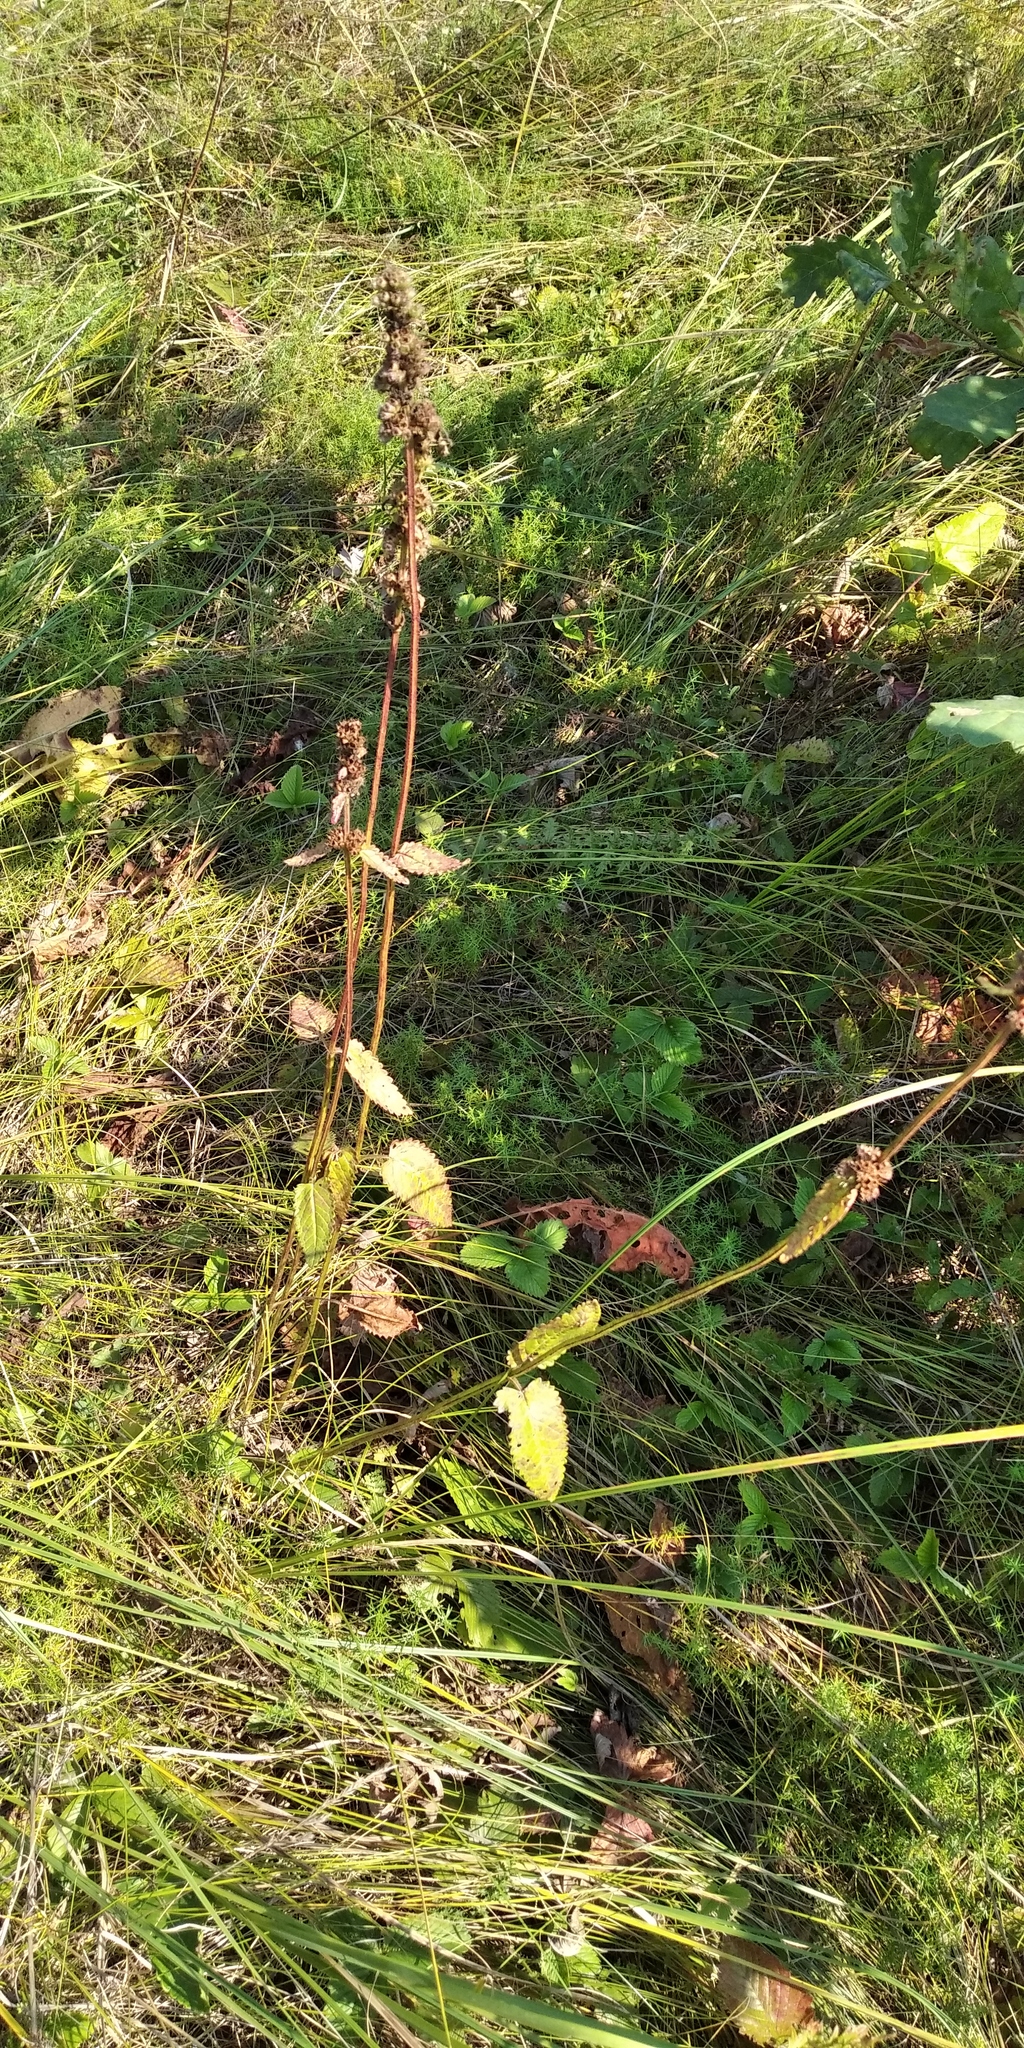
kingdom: Plantae
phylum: Tracheophyta
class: Magnoliopsida
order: Lamiales
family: Lamiaceae
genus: Betonica
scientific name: Betonica officinalis
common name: Bishop's-wort
